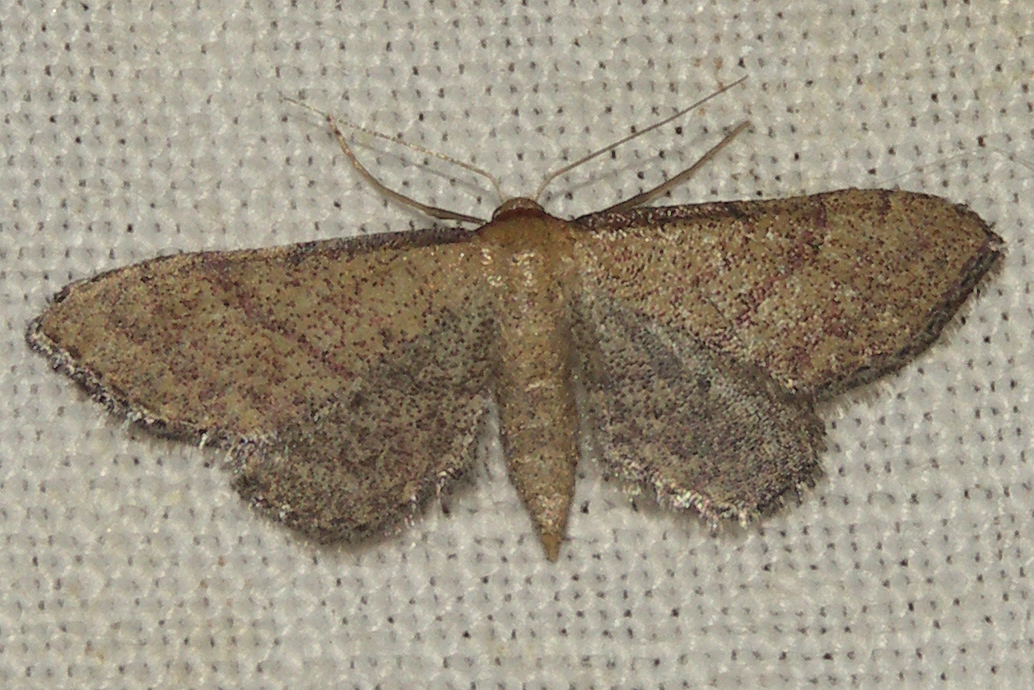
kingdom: Animalia
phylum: Arthropoda
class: Insecta
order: Lepidoptera
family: Geometridae
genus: Idaea
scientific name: Idaea infirmaria
